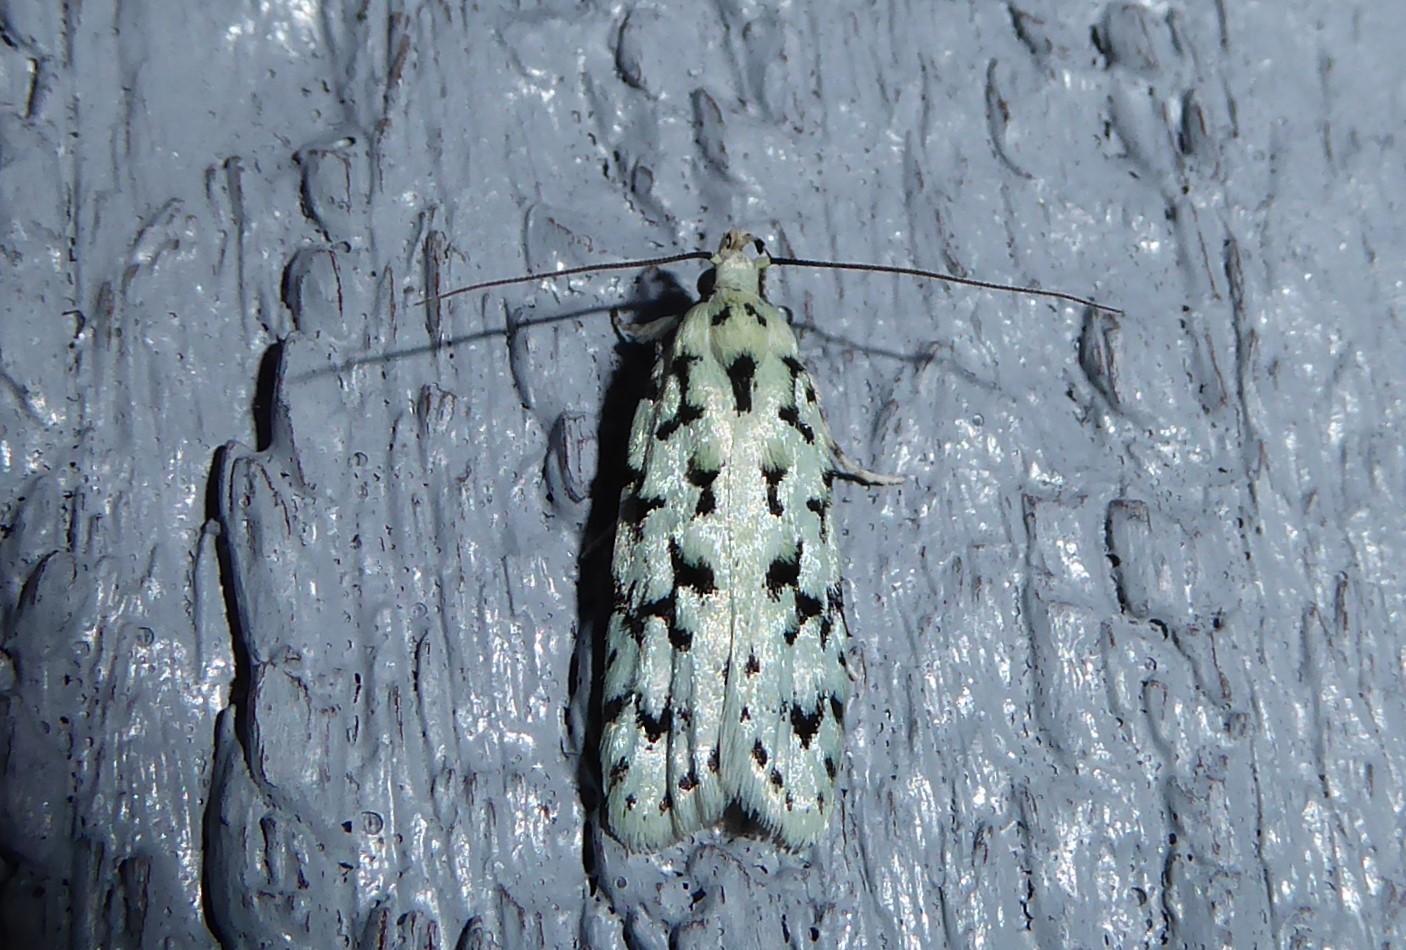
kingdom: Animalia
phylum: Arthropoda
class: Insecta
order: Lepidoptera
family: Oecophoridae
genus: Izatha
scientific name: Izatha huttoni
